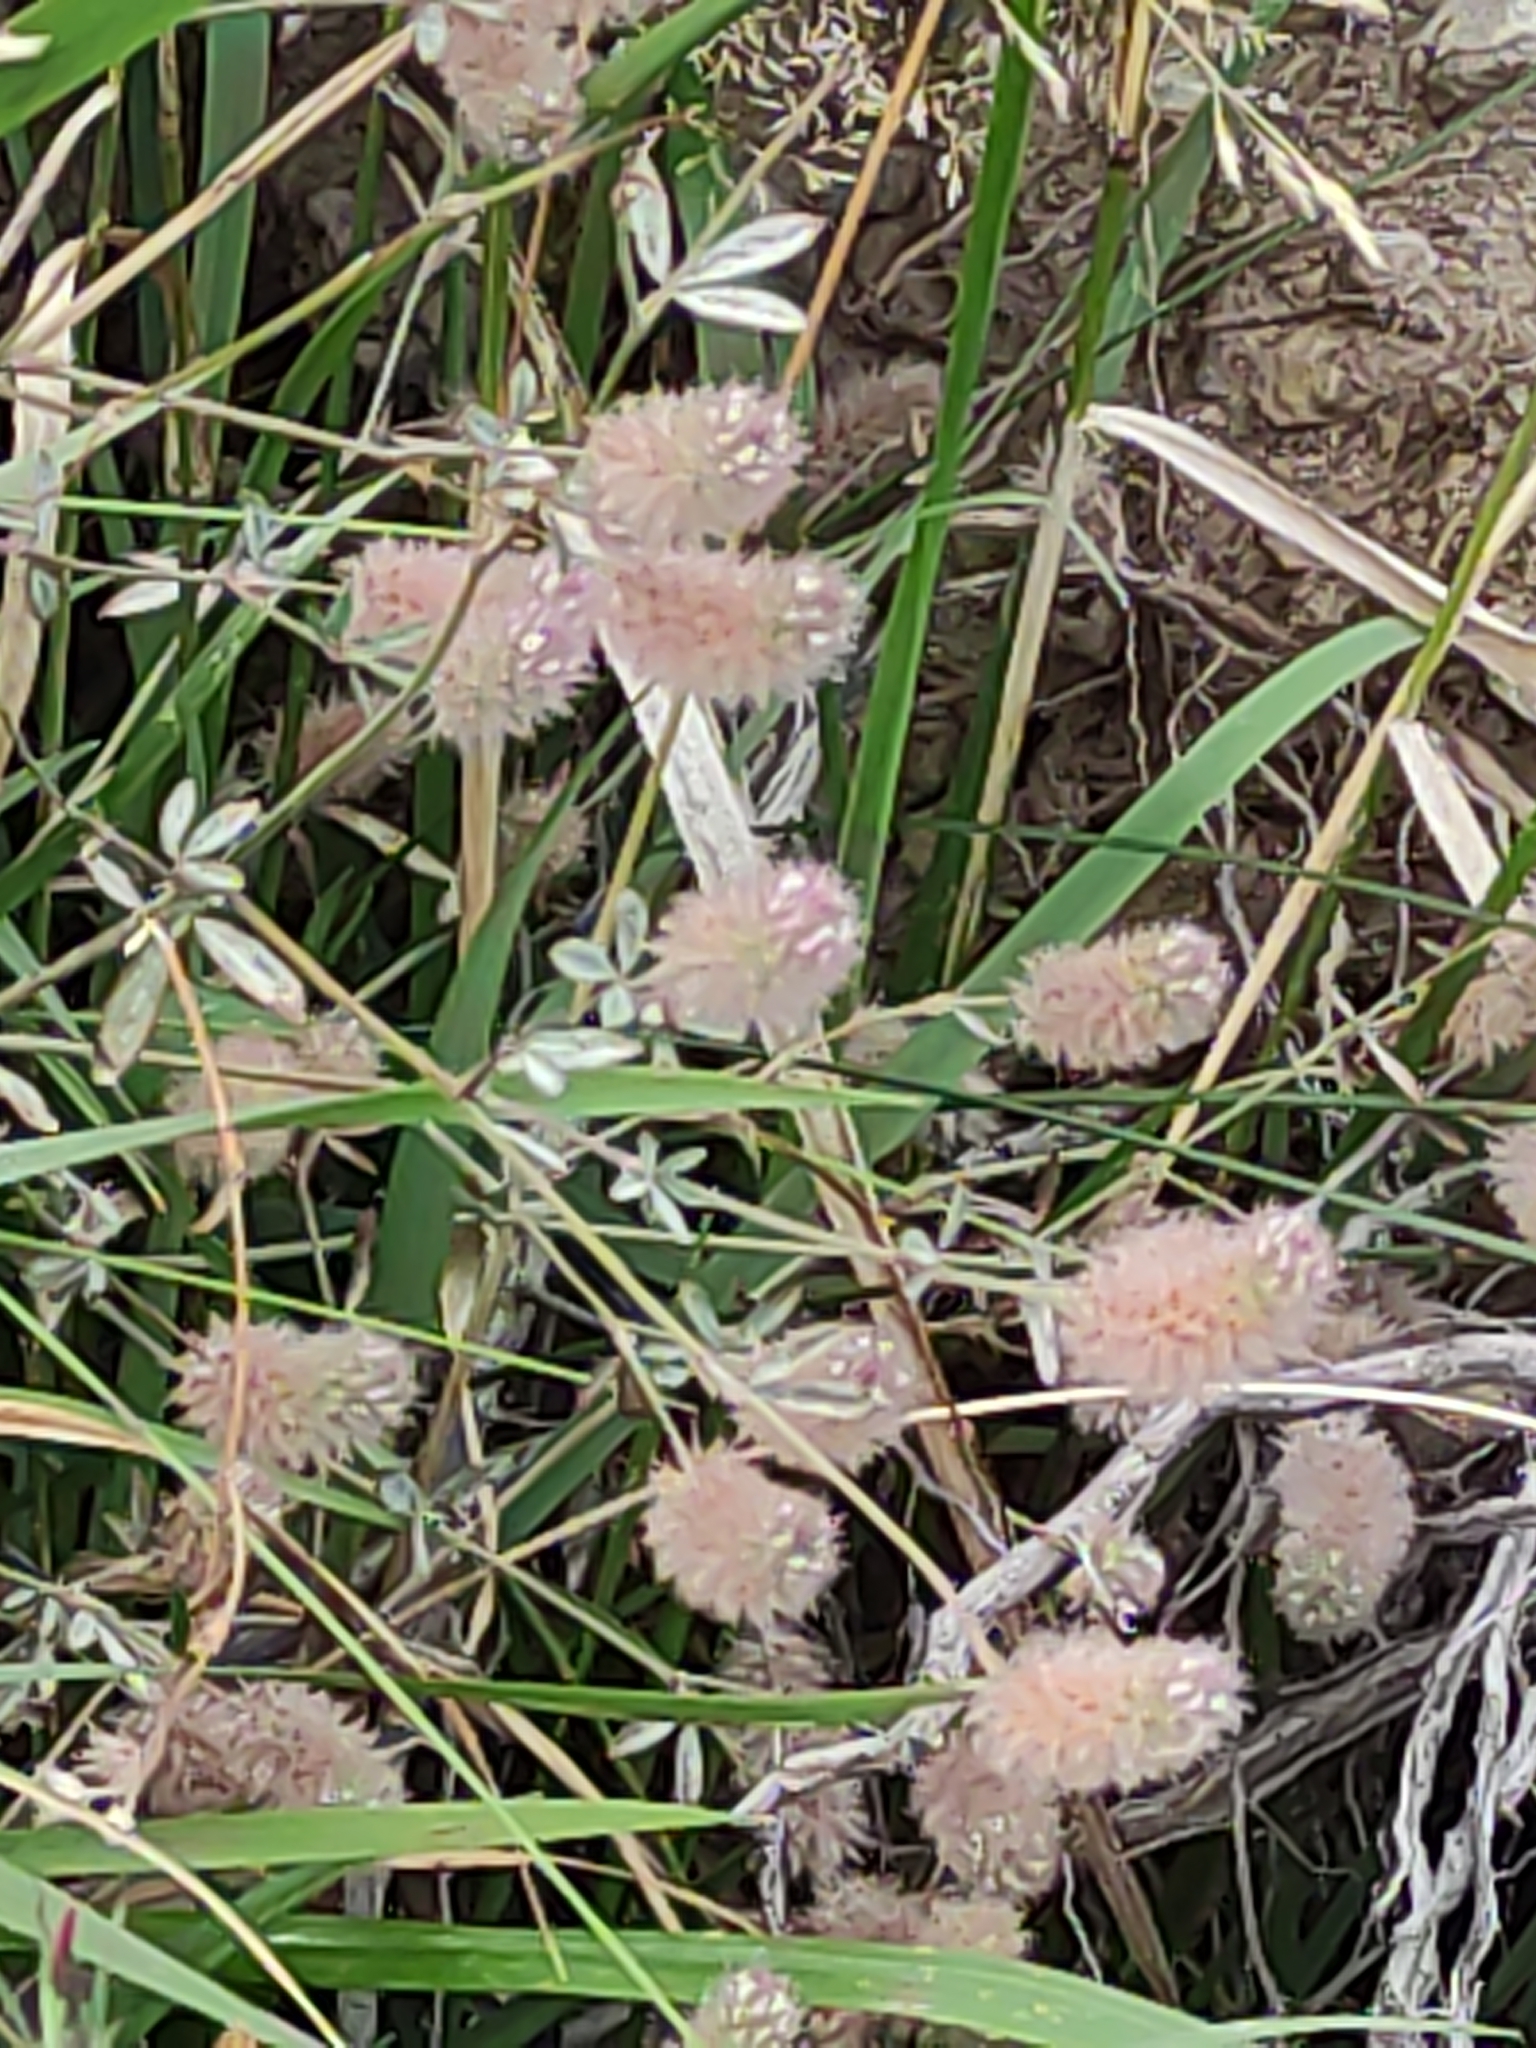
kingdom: Plantae
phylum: Tracheophyta
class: Magnoliopsida
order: Fabales
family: Fabaceae
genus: Trifolium
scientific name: Trifolium arvense
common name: Hare's-foot clover
